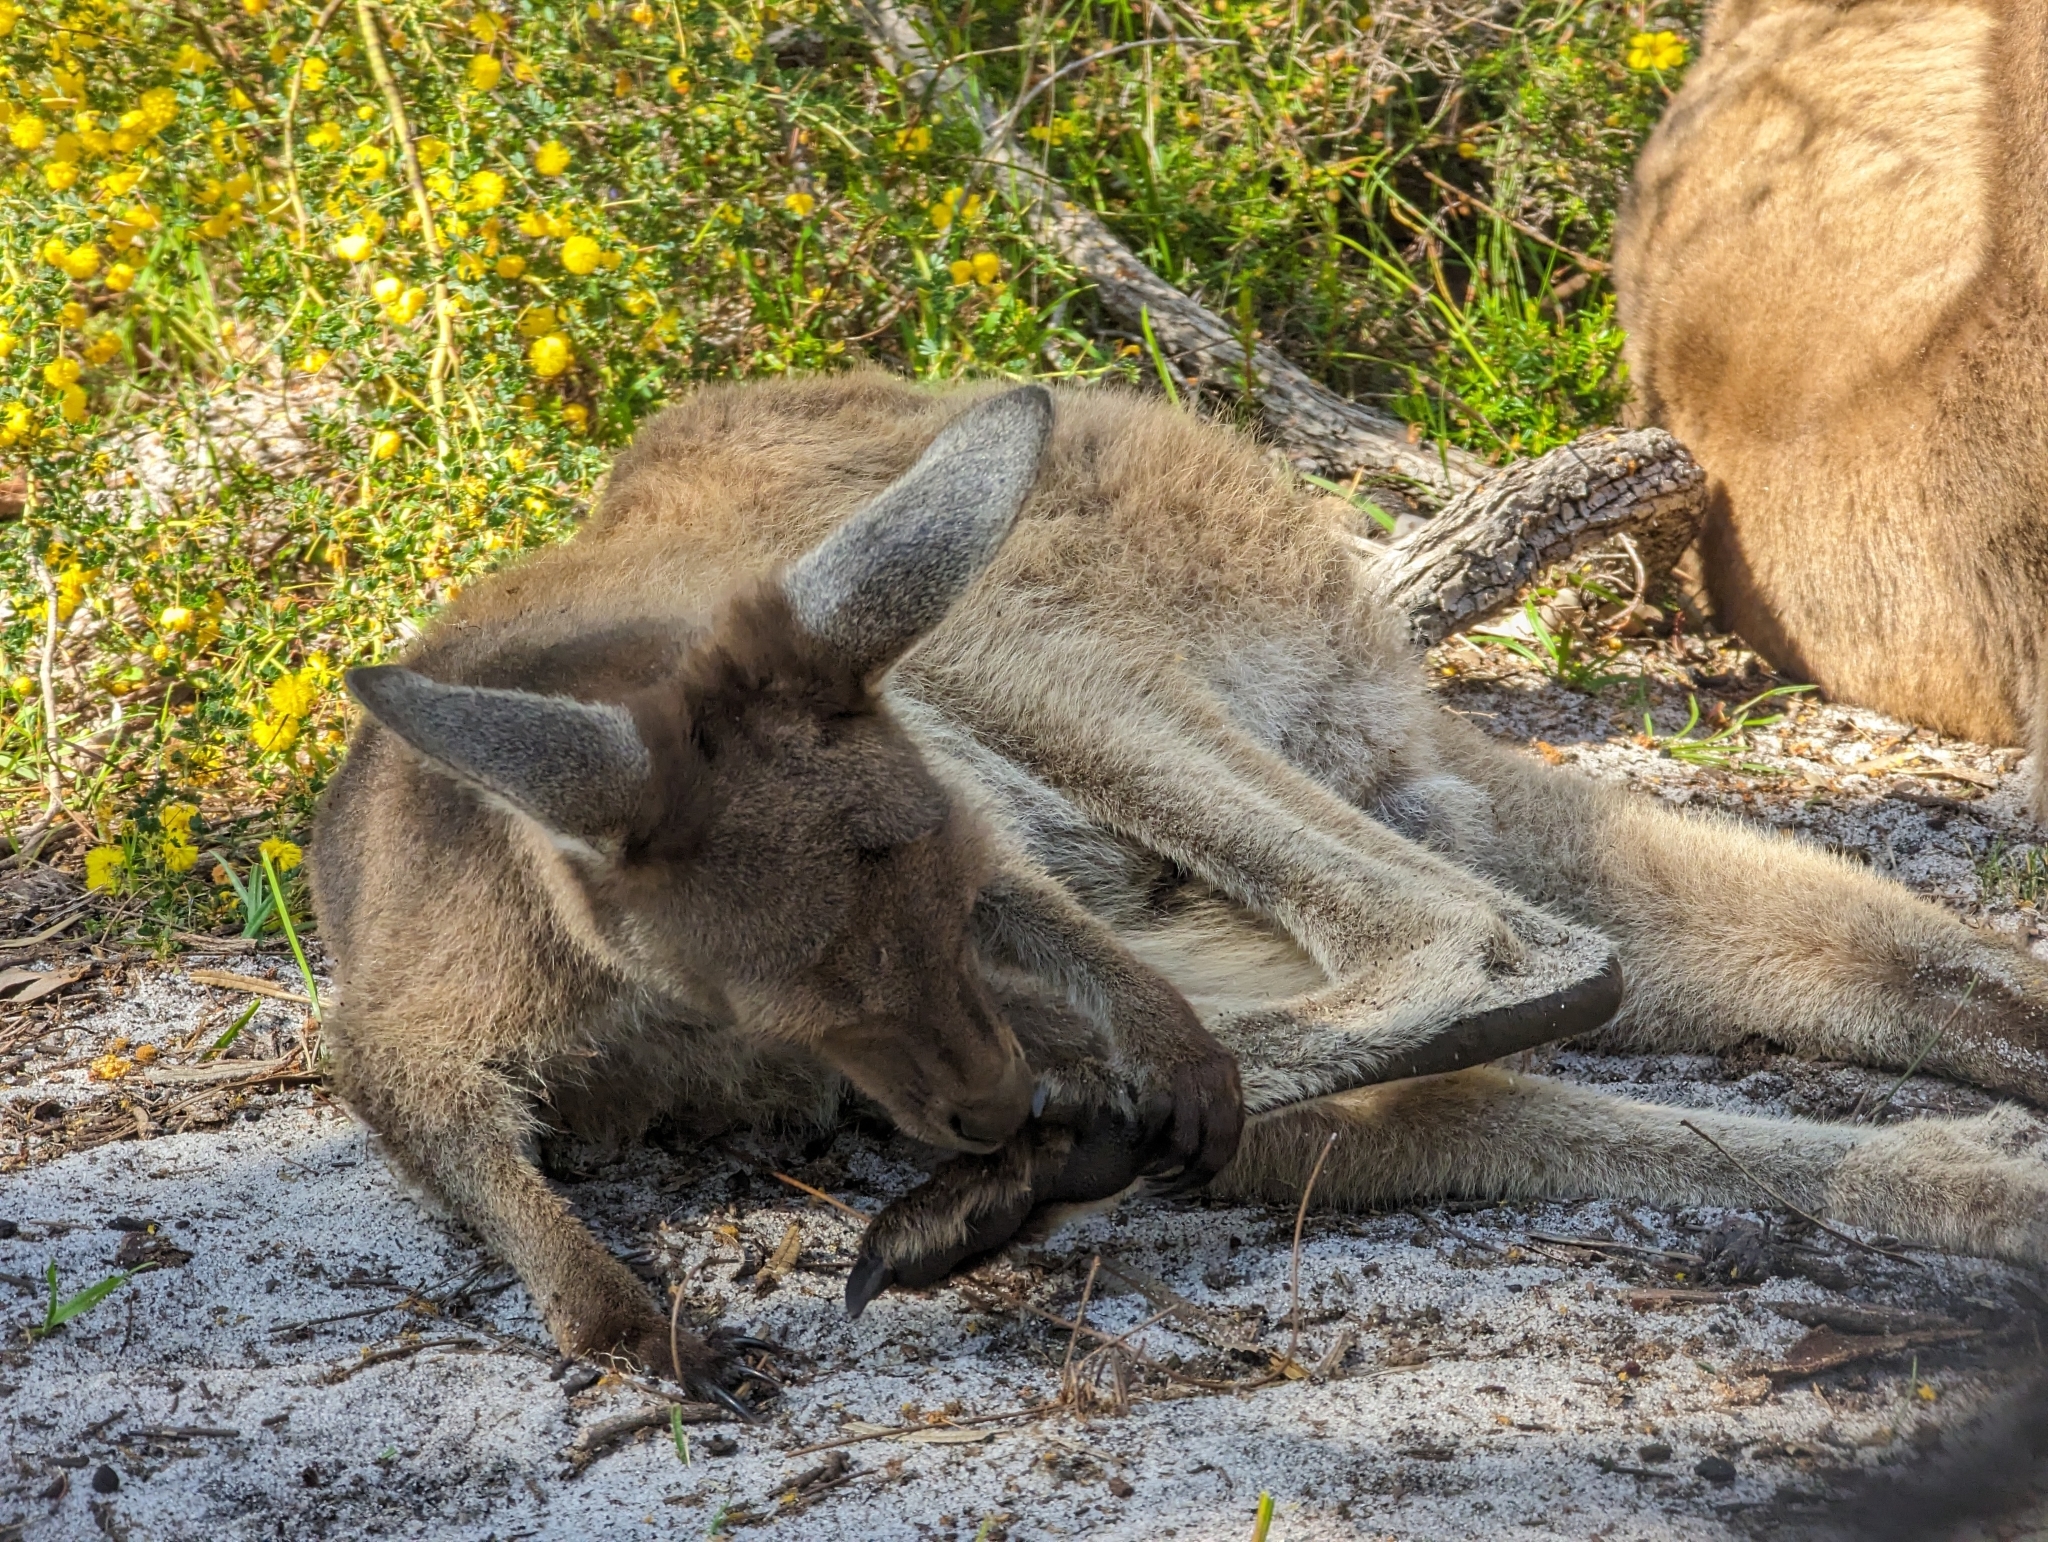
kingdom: Animalia
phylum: Chordata
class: Mammalia
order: Diprotodontia
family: Macropodidae
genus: Macropus
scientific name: Macropus fuliginosus
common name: Western grey kangaroo
